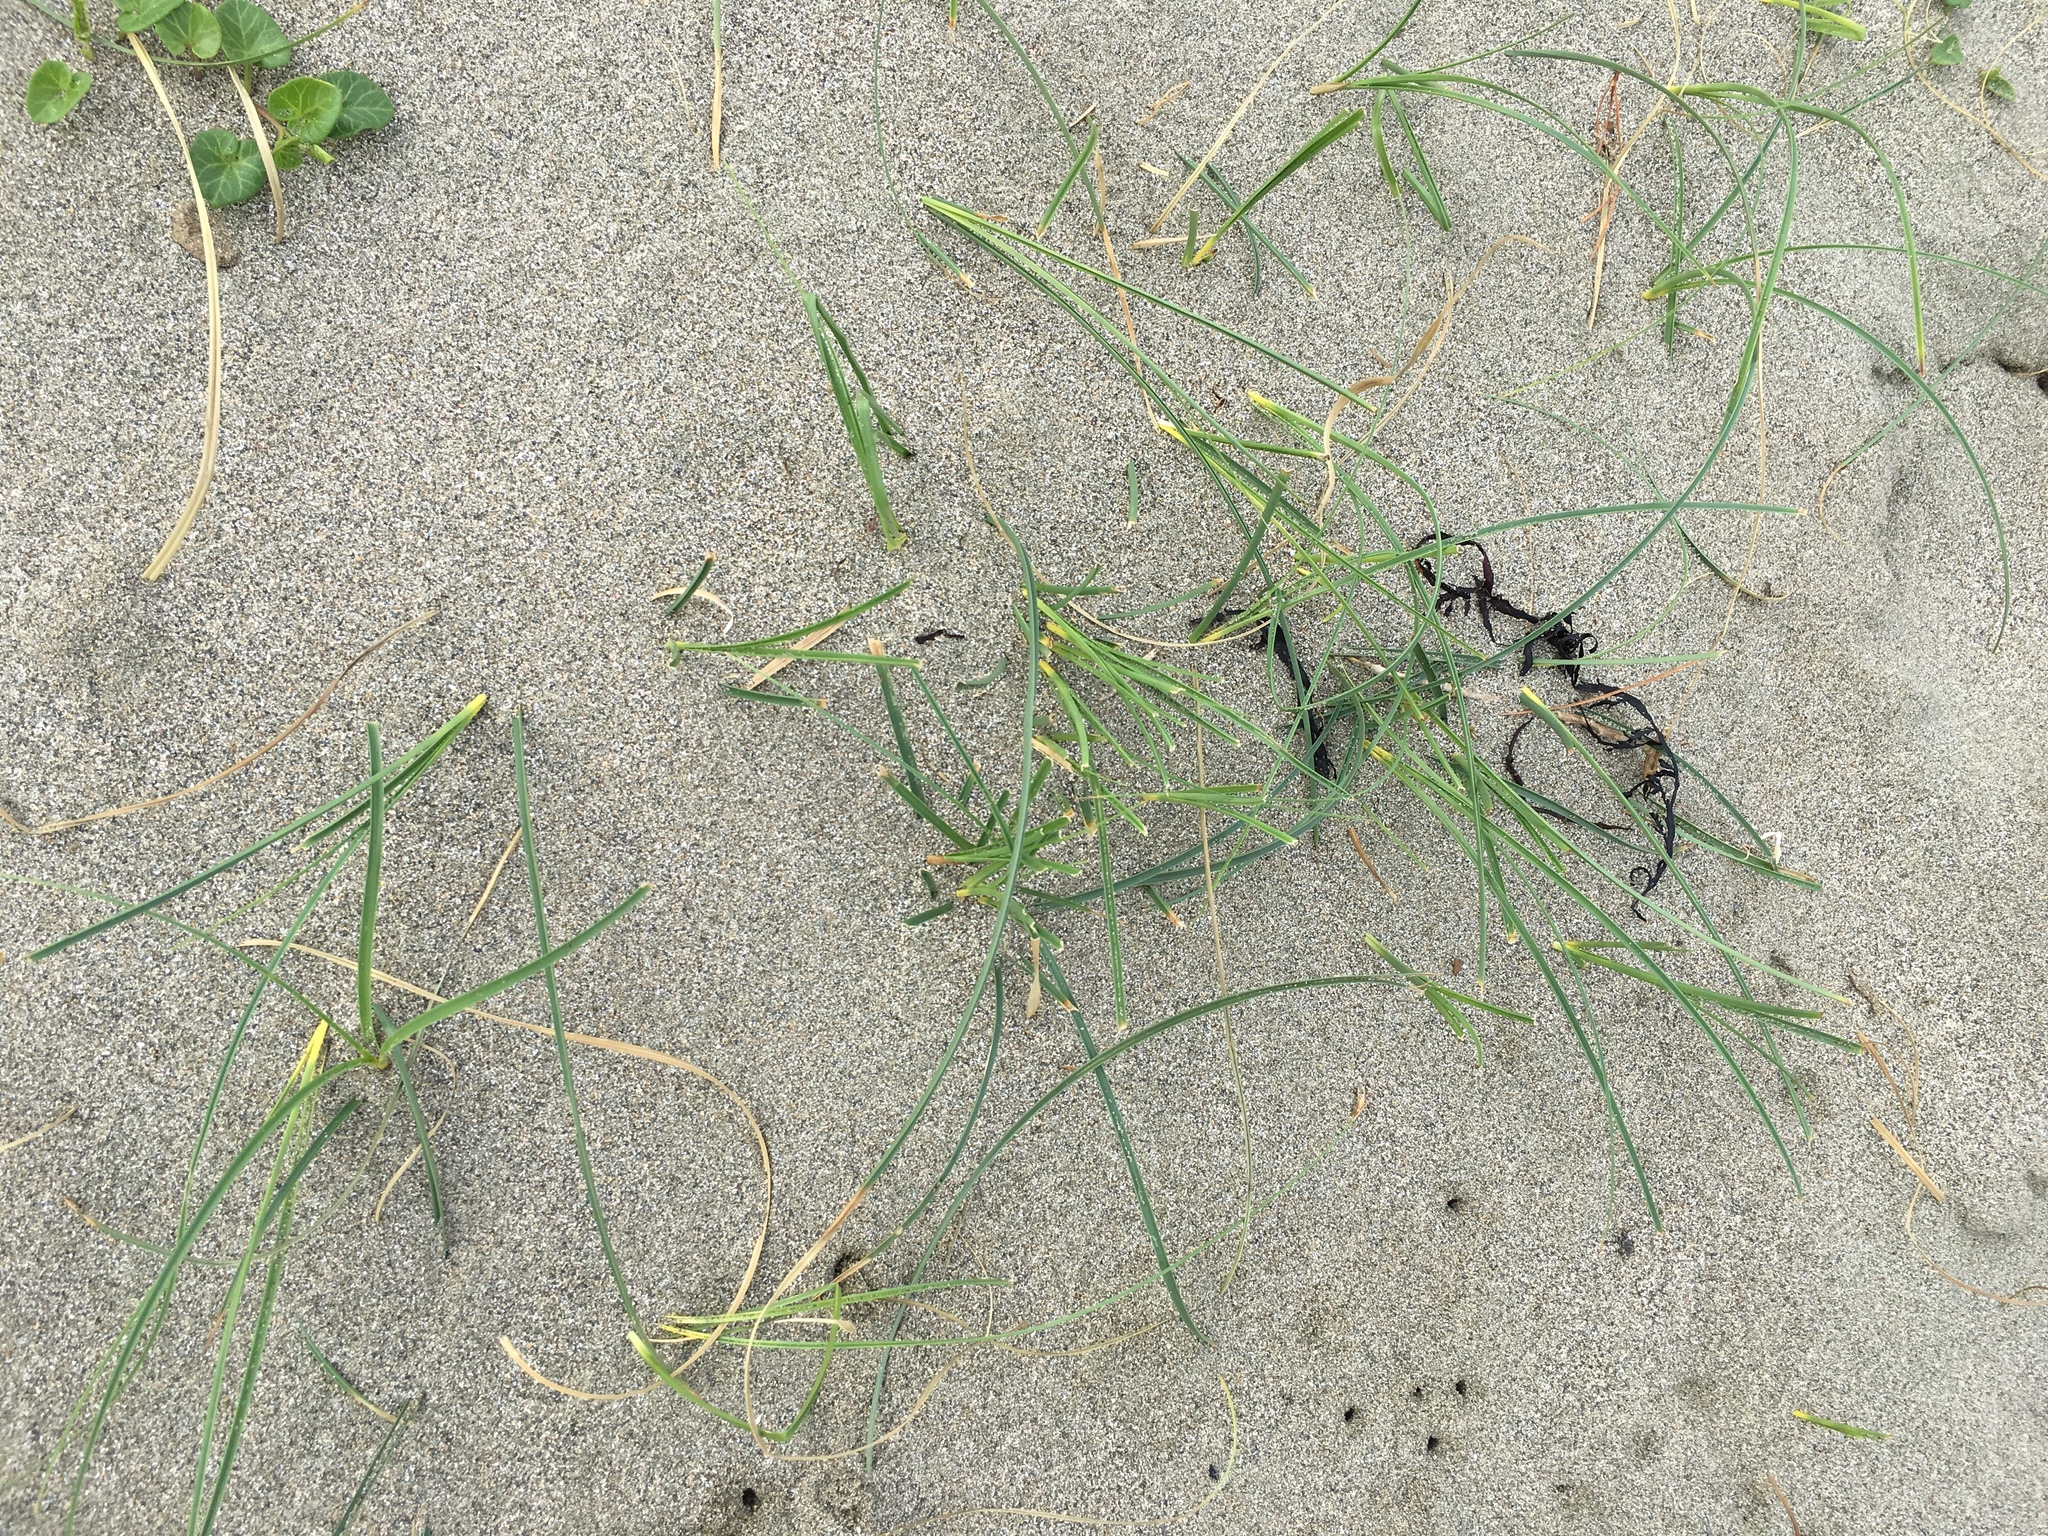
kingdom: Plantae
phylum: Tracheophyta
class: Liliopsida
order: Poales
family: Cyperaceae
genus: Carex
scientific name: Carex pumila
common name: Dwarf sedge
